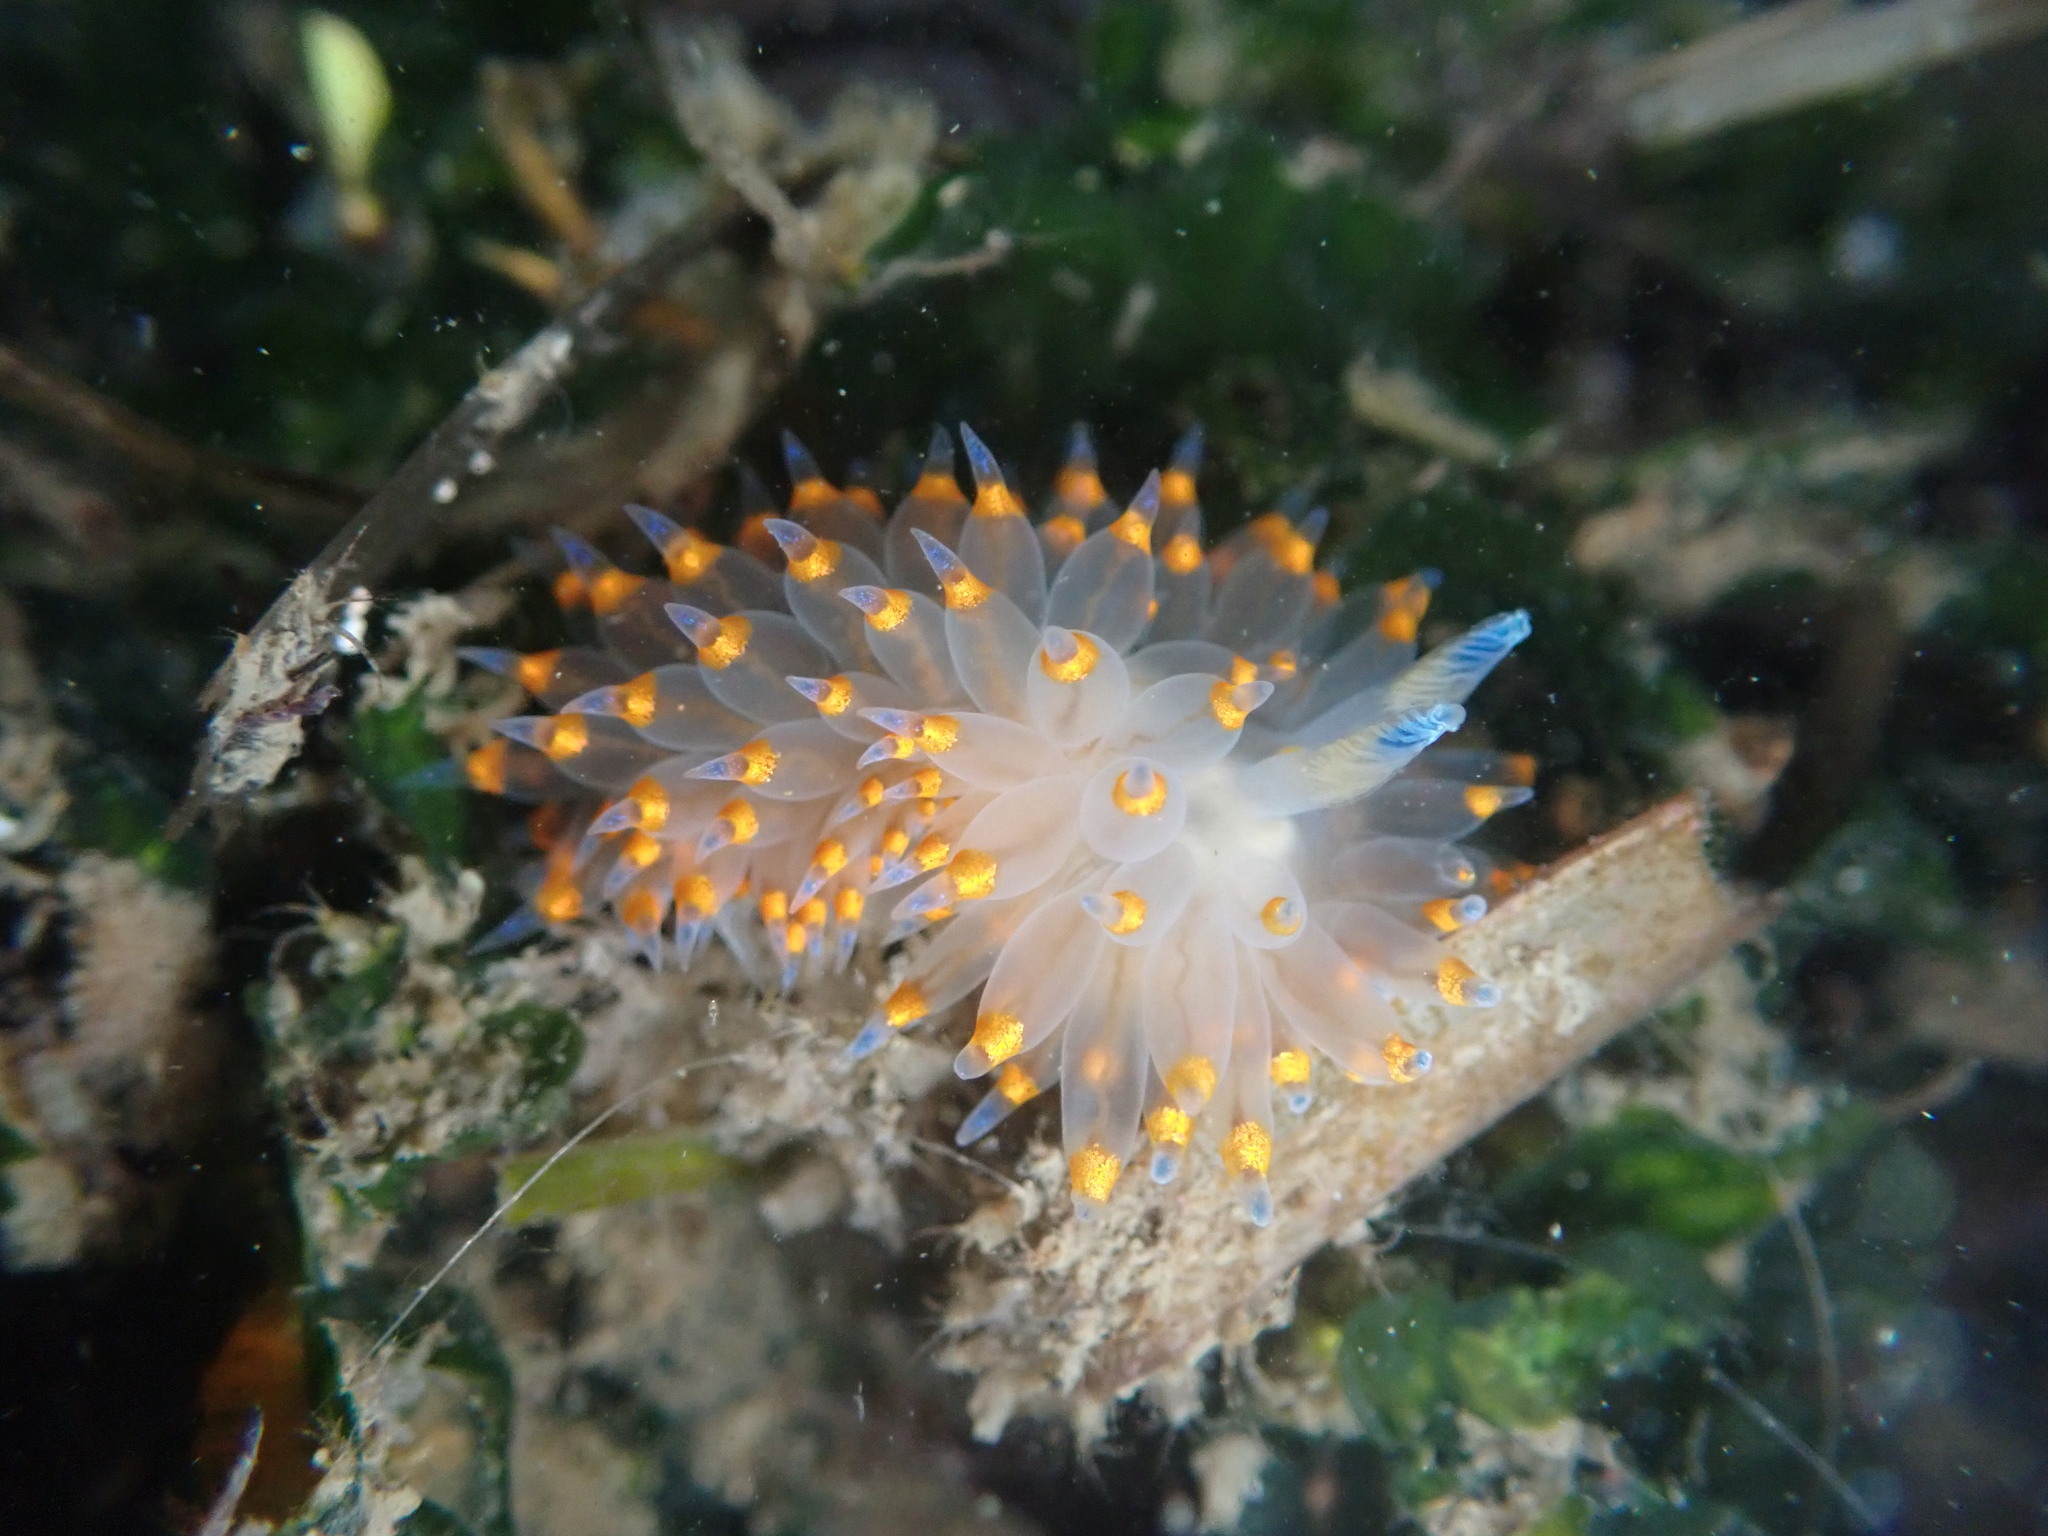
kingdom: Animalia
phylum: Mollusca
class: Gastropoda
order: Nudibranchia
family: Janolidae
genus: Antiopella
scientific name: Antiopella barbarensis
